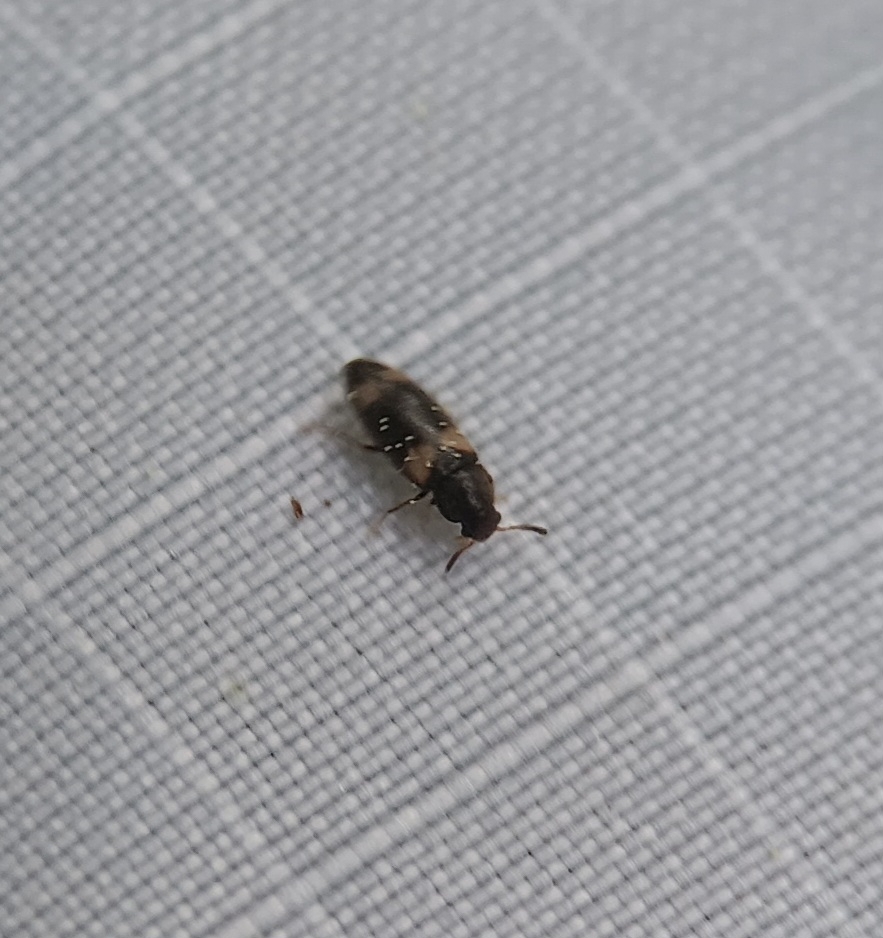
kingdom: Animalia
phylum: Arthropoda
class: Insecta
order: Coleoptera
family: Melandryidae
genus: Spilotus
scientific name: Spilotus quadripustulatus
